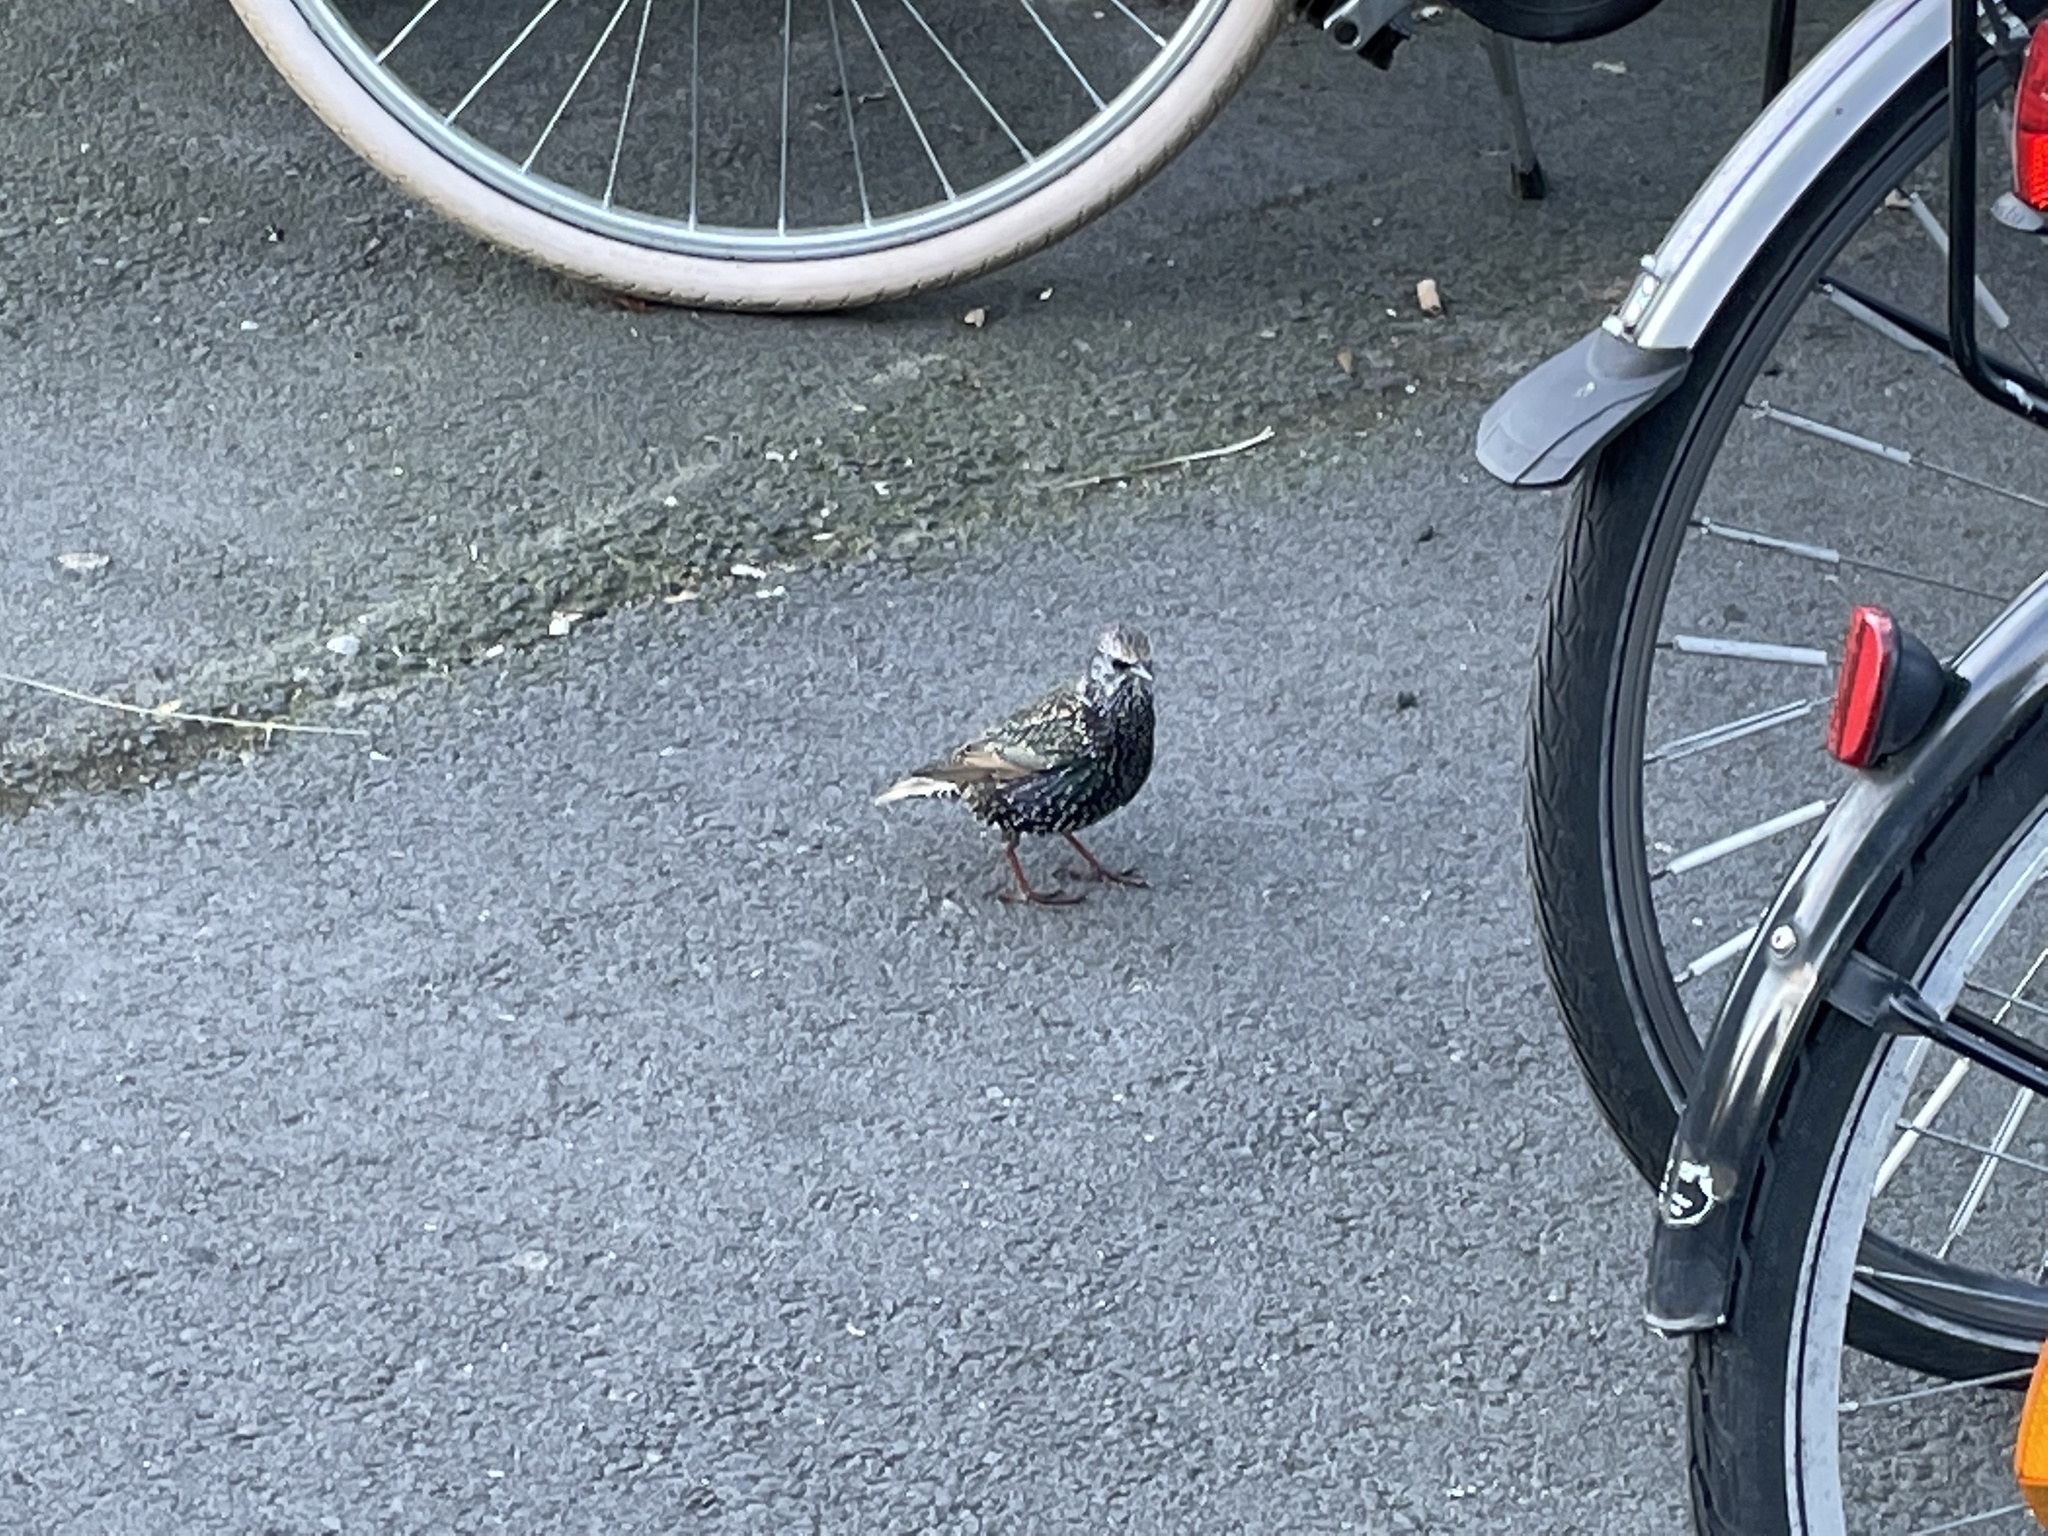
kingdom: Animalia
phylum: Chordata
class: Aves
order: Passeriformes
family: Sturnidae
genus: Sturnus
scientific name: Sturnus vulgaris
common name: Common starling
